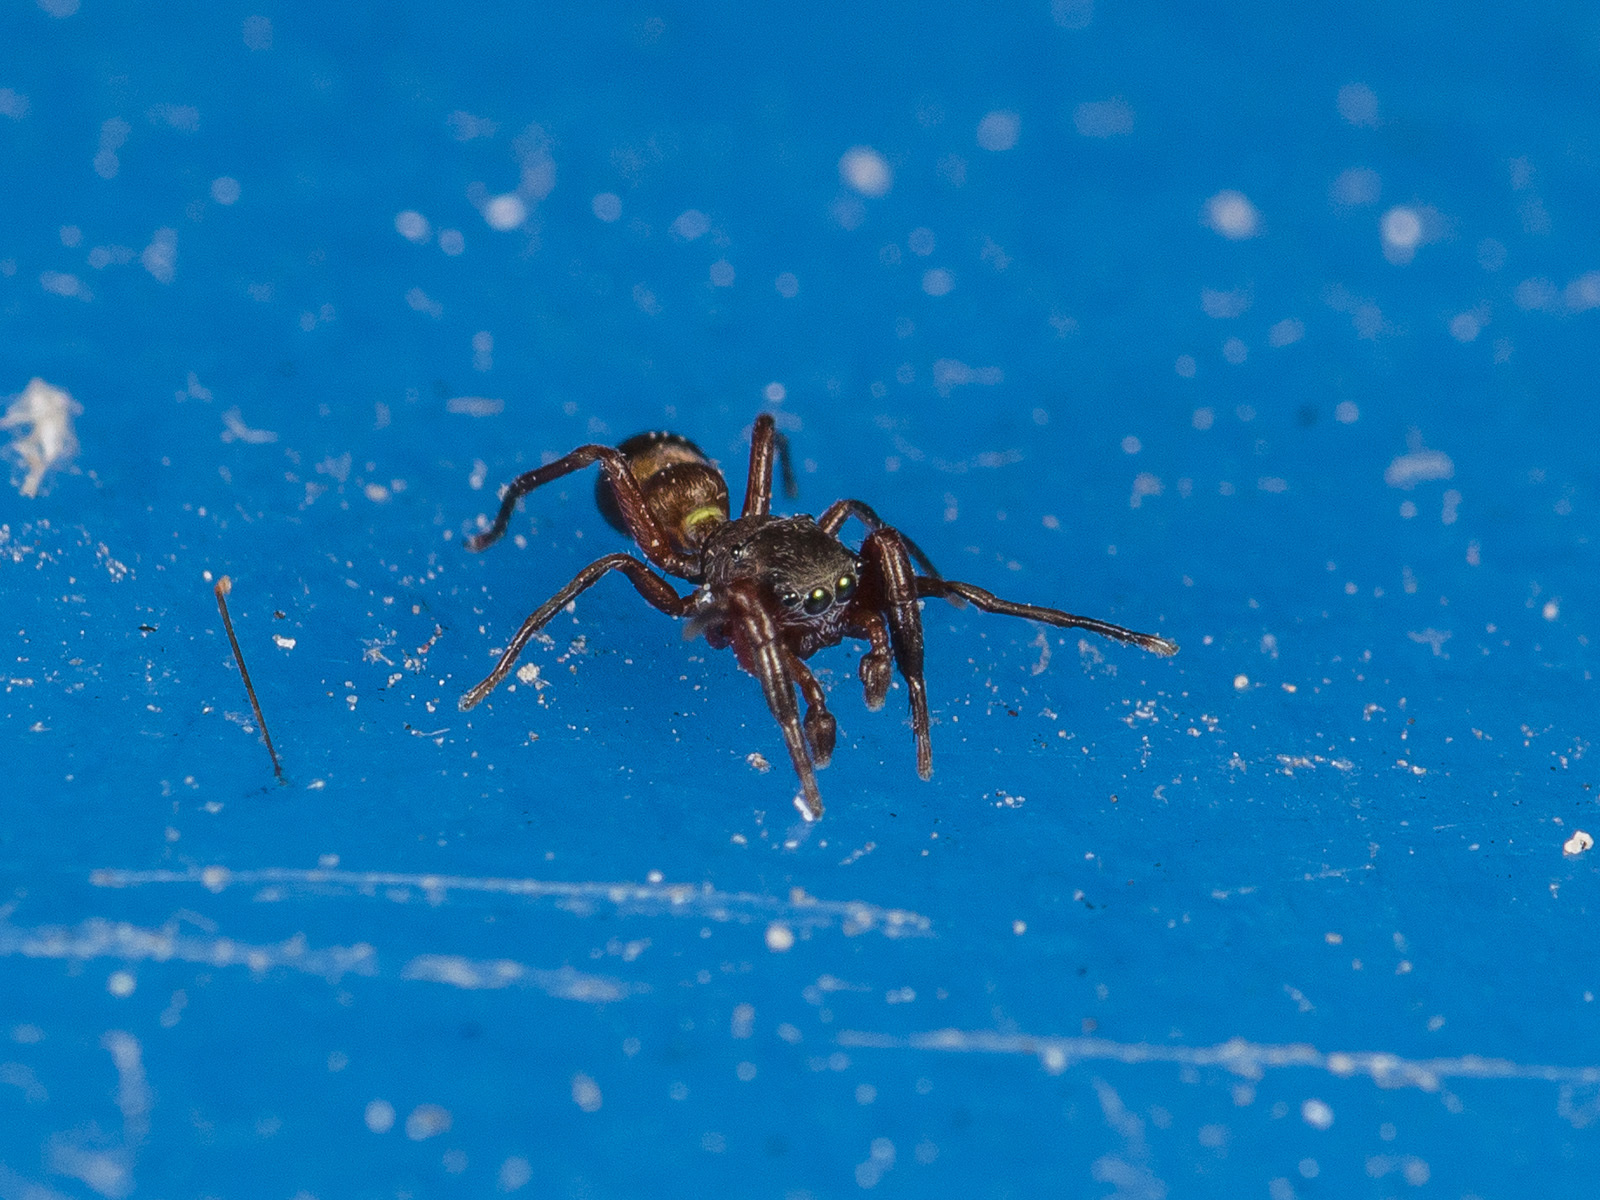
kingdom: Animalia
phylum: Arthropoda
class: Arachnida
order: Araneae
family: Salticidae
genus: Synageles
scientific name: Synageles subcingulatus
